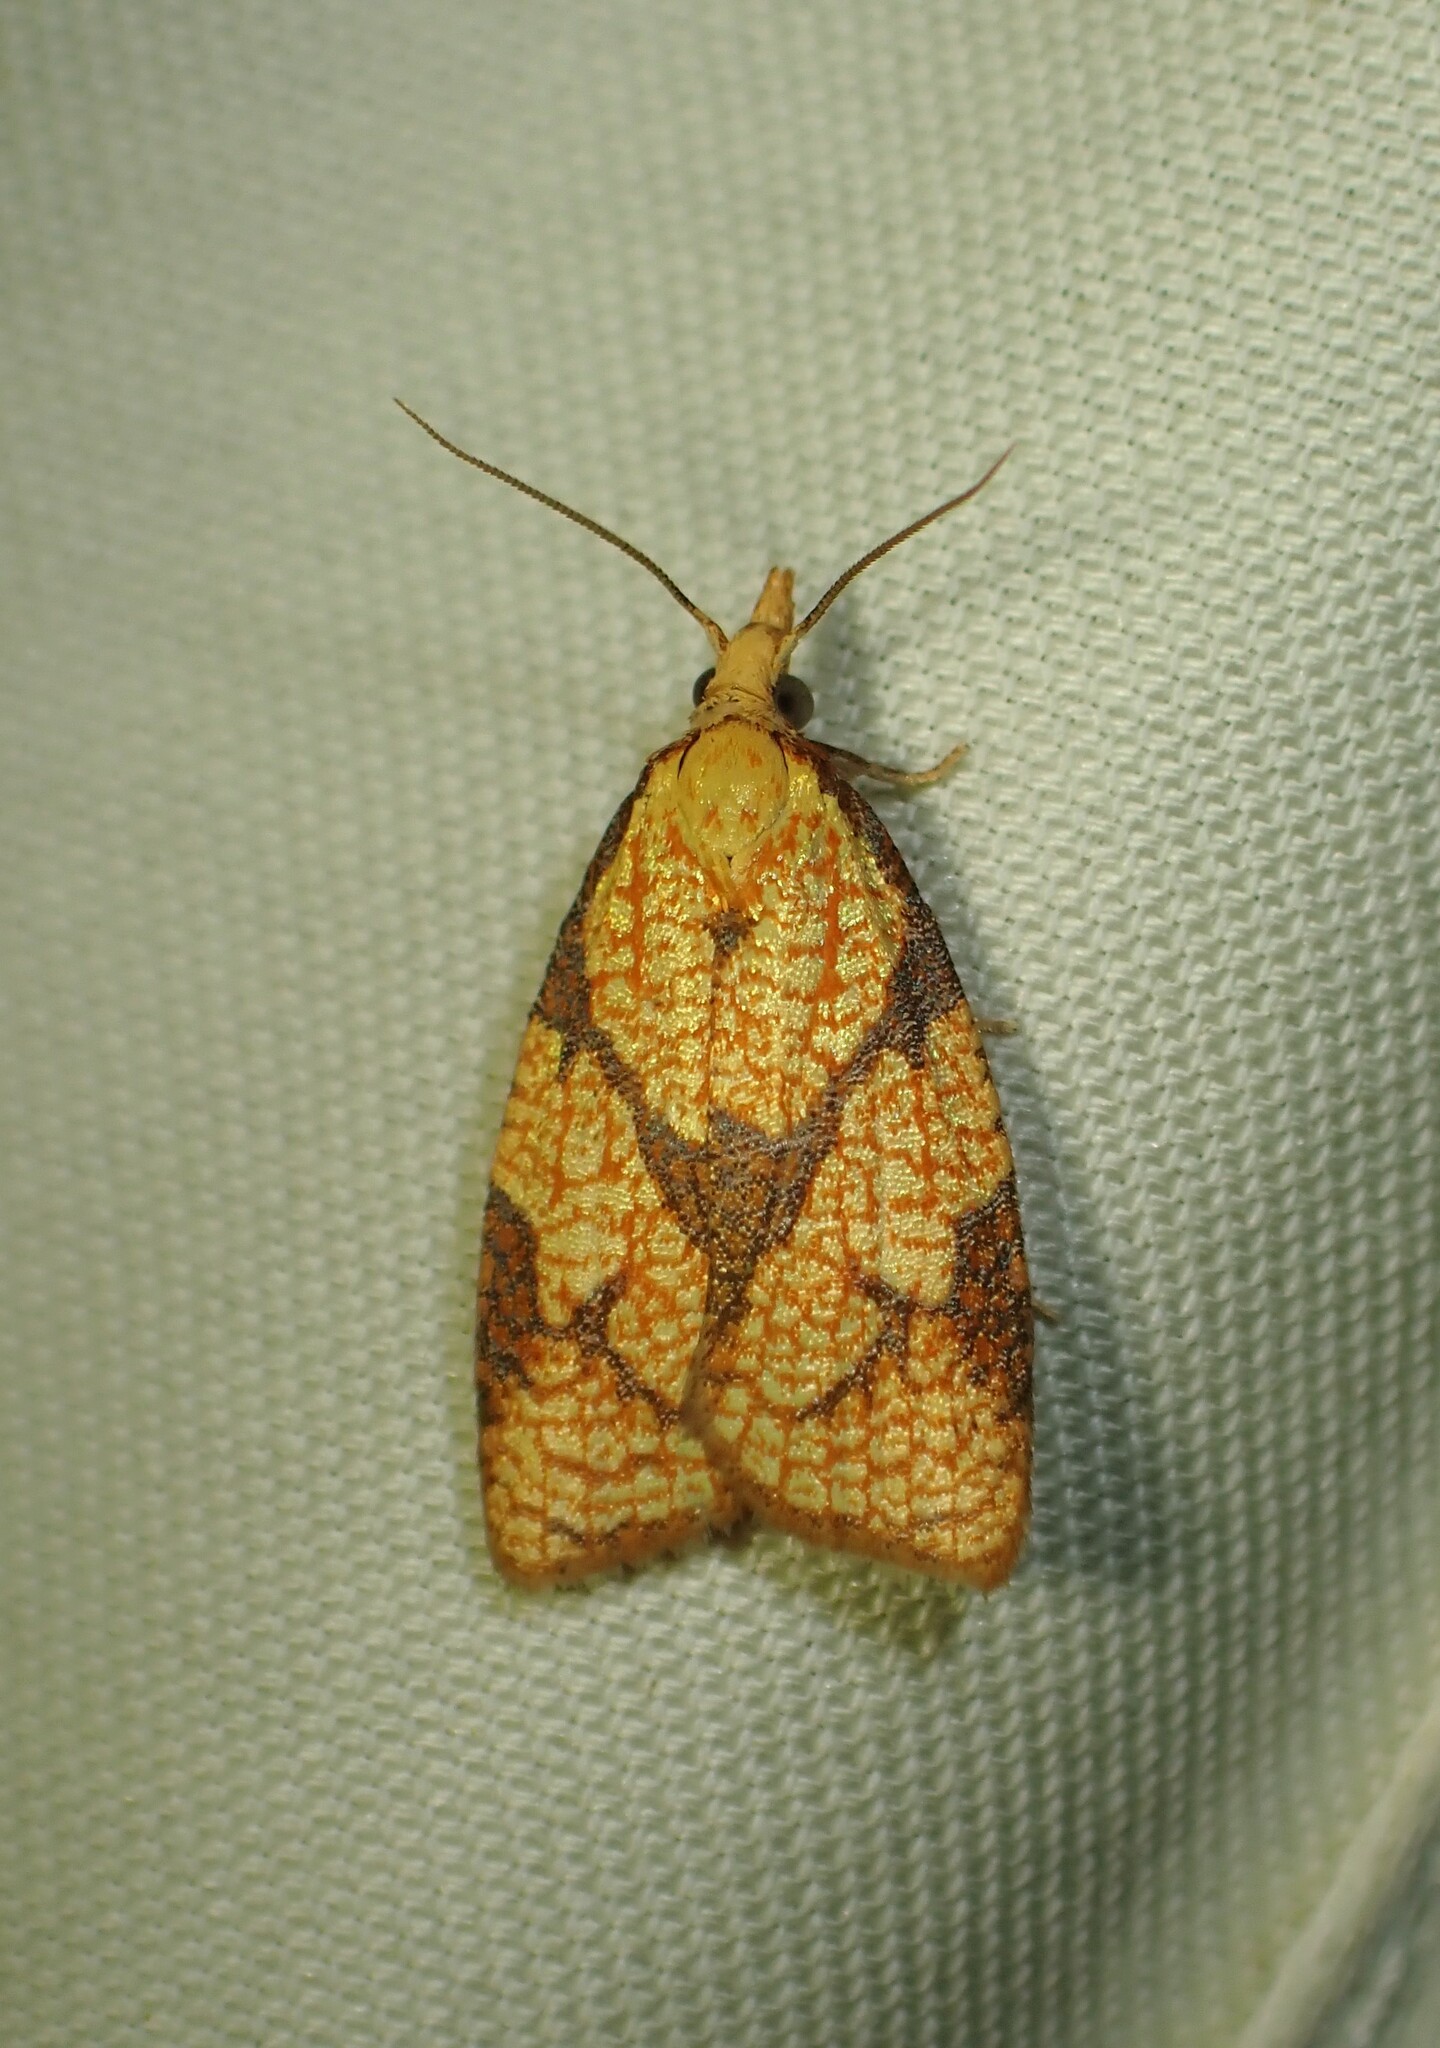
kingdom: Animalia
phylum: Arthropoda
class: Insecta
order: Lepidoptera
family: Tortricidae
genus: Cenopis
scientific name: Cenopis reticulatana
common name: Reticulated fruitworm moth
